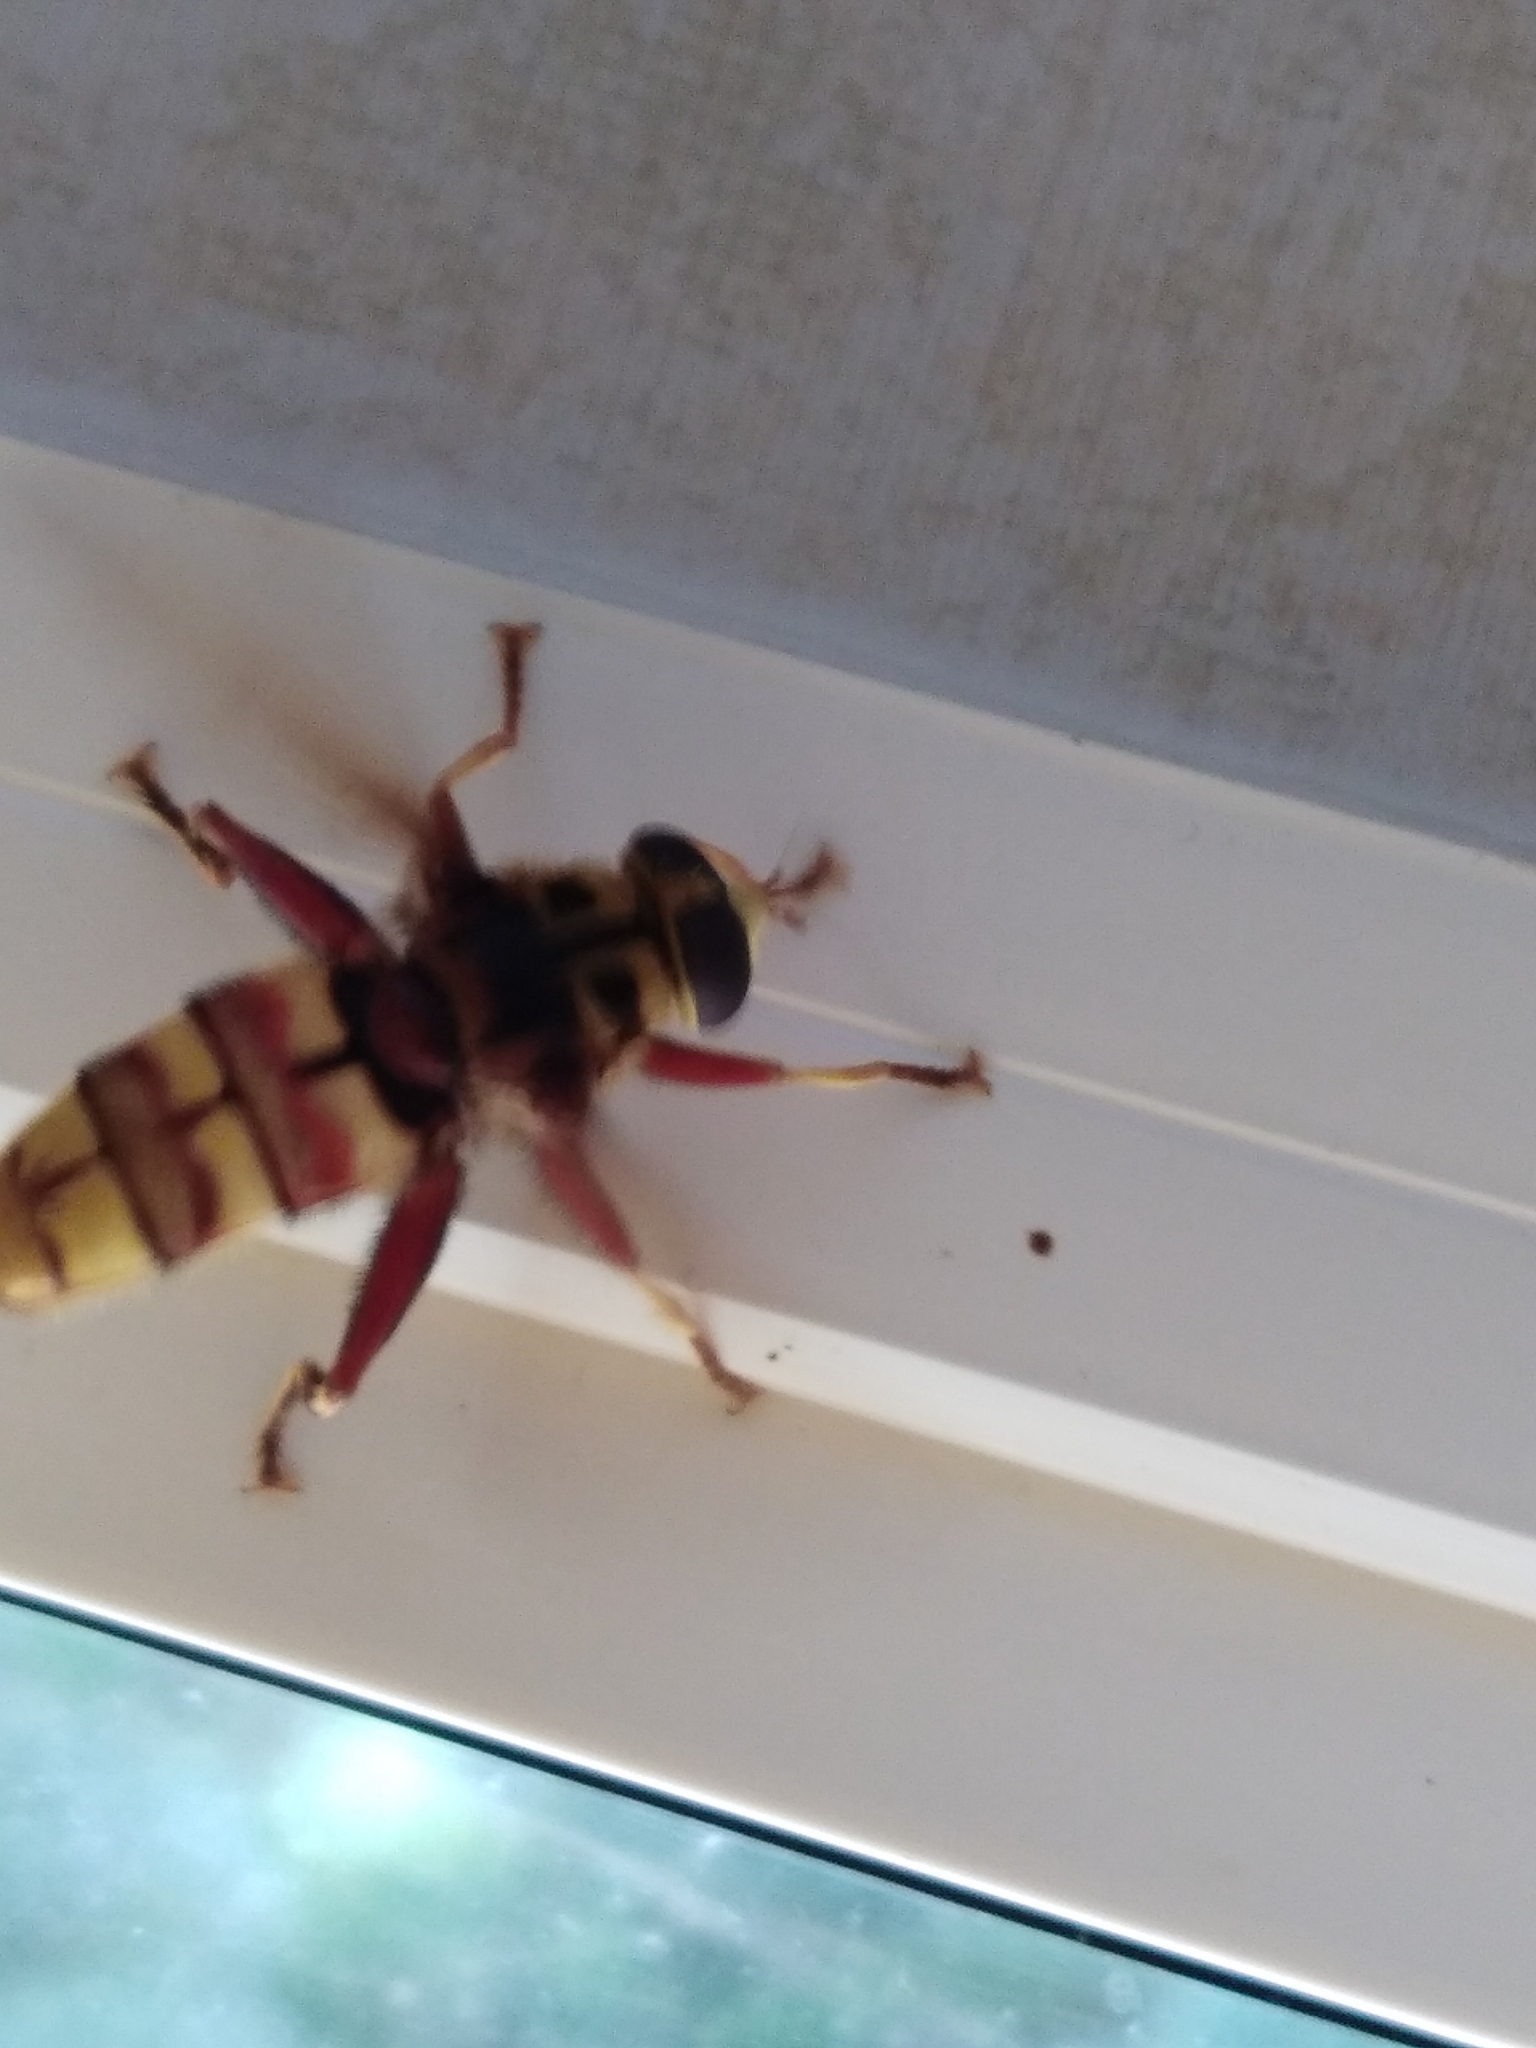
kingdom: Animalia
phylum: Arthropoda
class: Insecta
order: Diptera
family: Syrphidae
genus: Milesia
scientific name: Milesia crabroniformis
